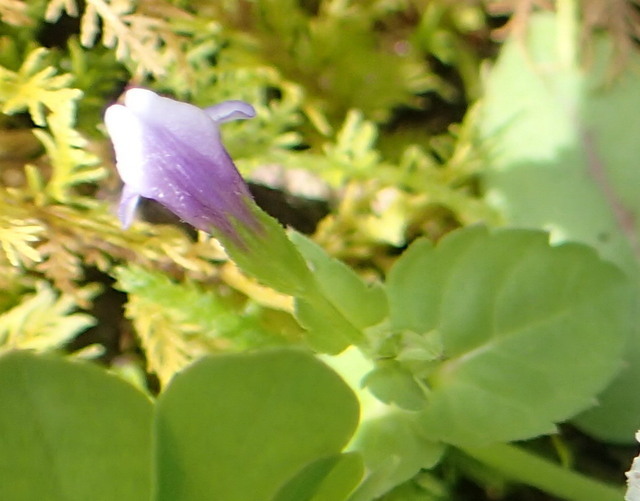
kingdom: Plantae
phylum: Tracheophyta
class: Magnoliopsida
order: Lamiales
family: Mazaceae
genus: Mazus
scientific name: Mazus pumilus
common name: Japanese mazus
